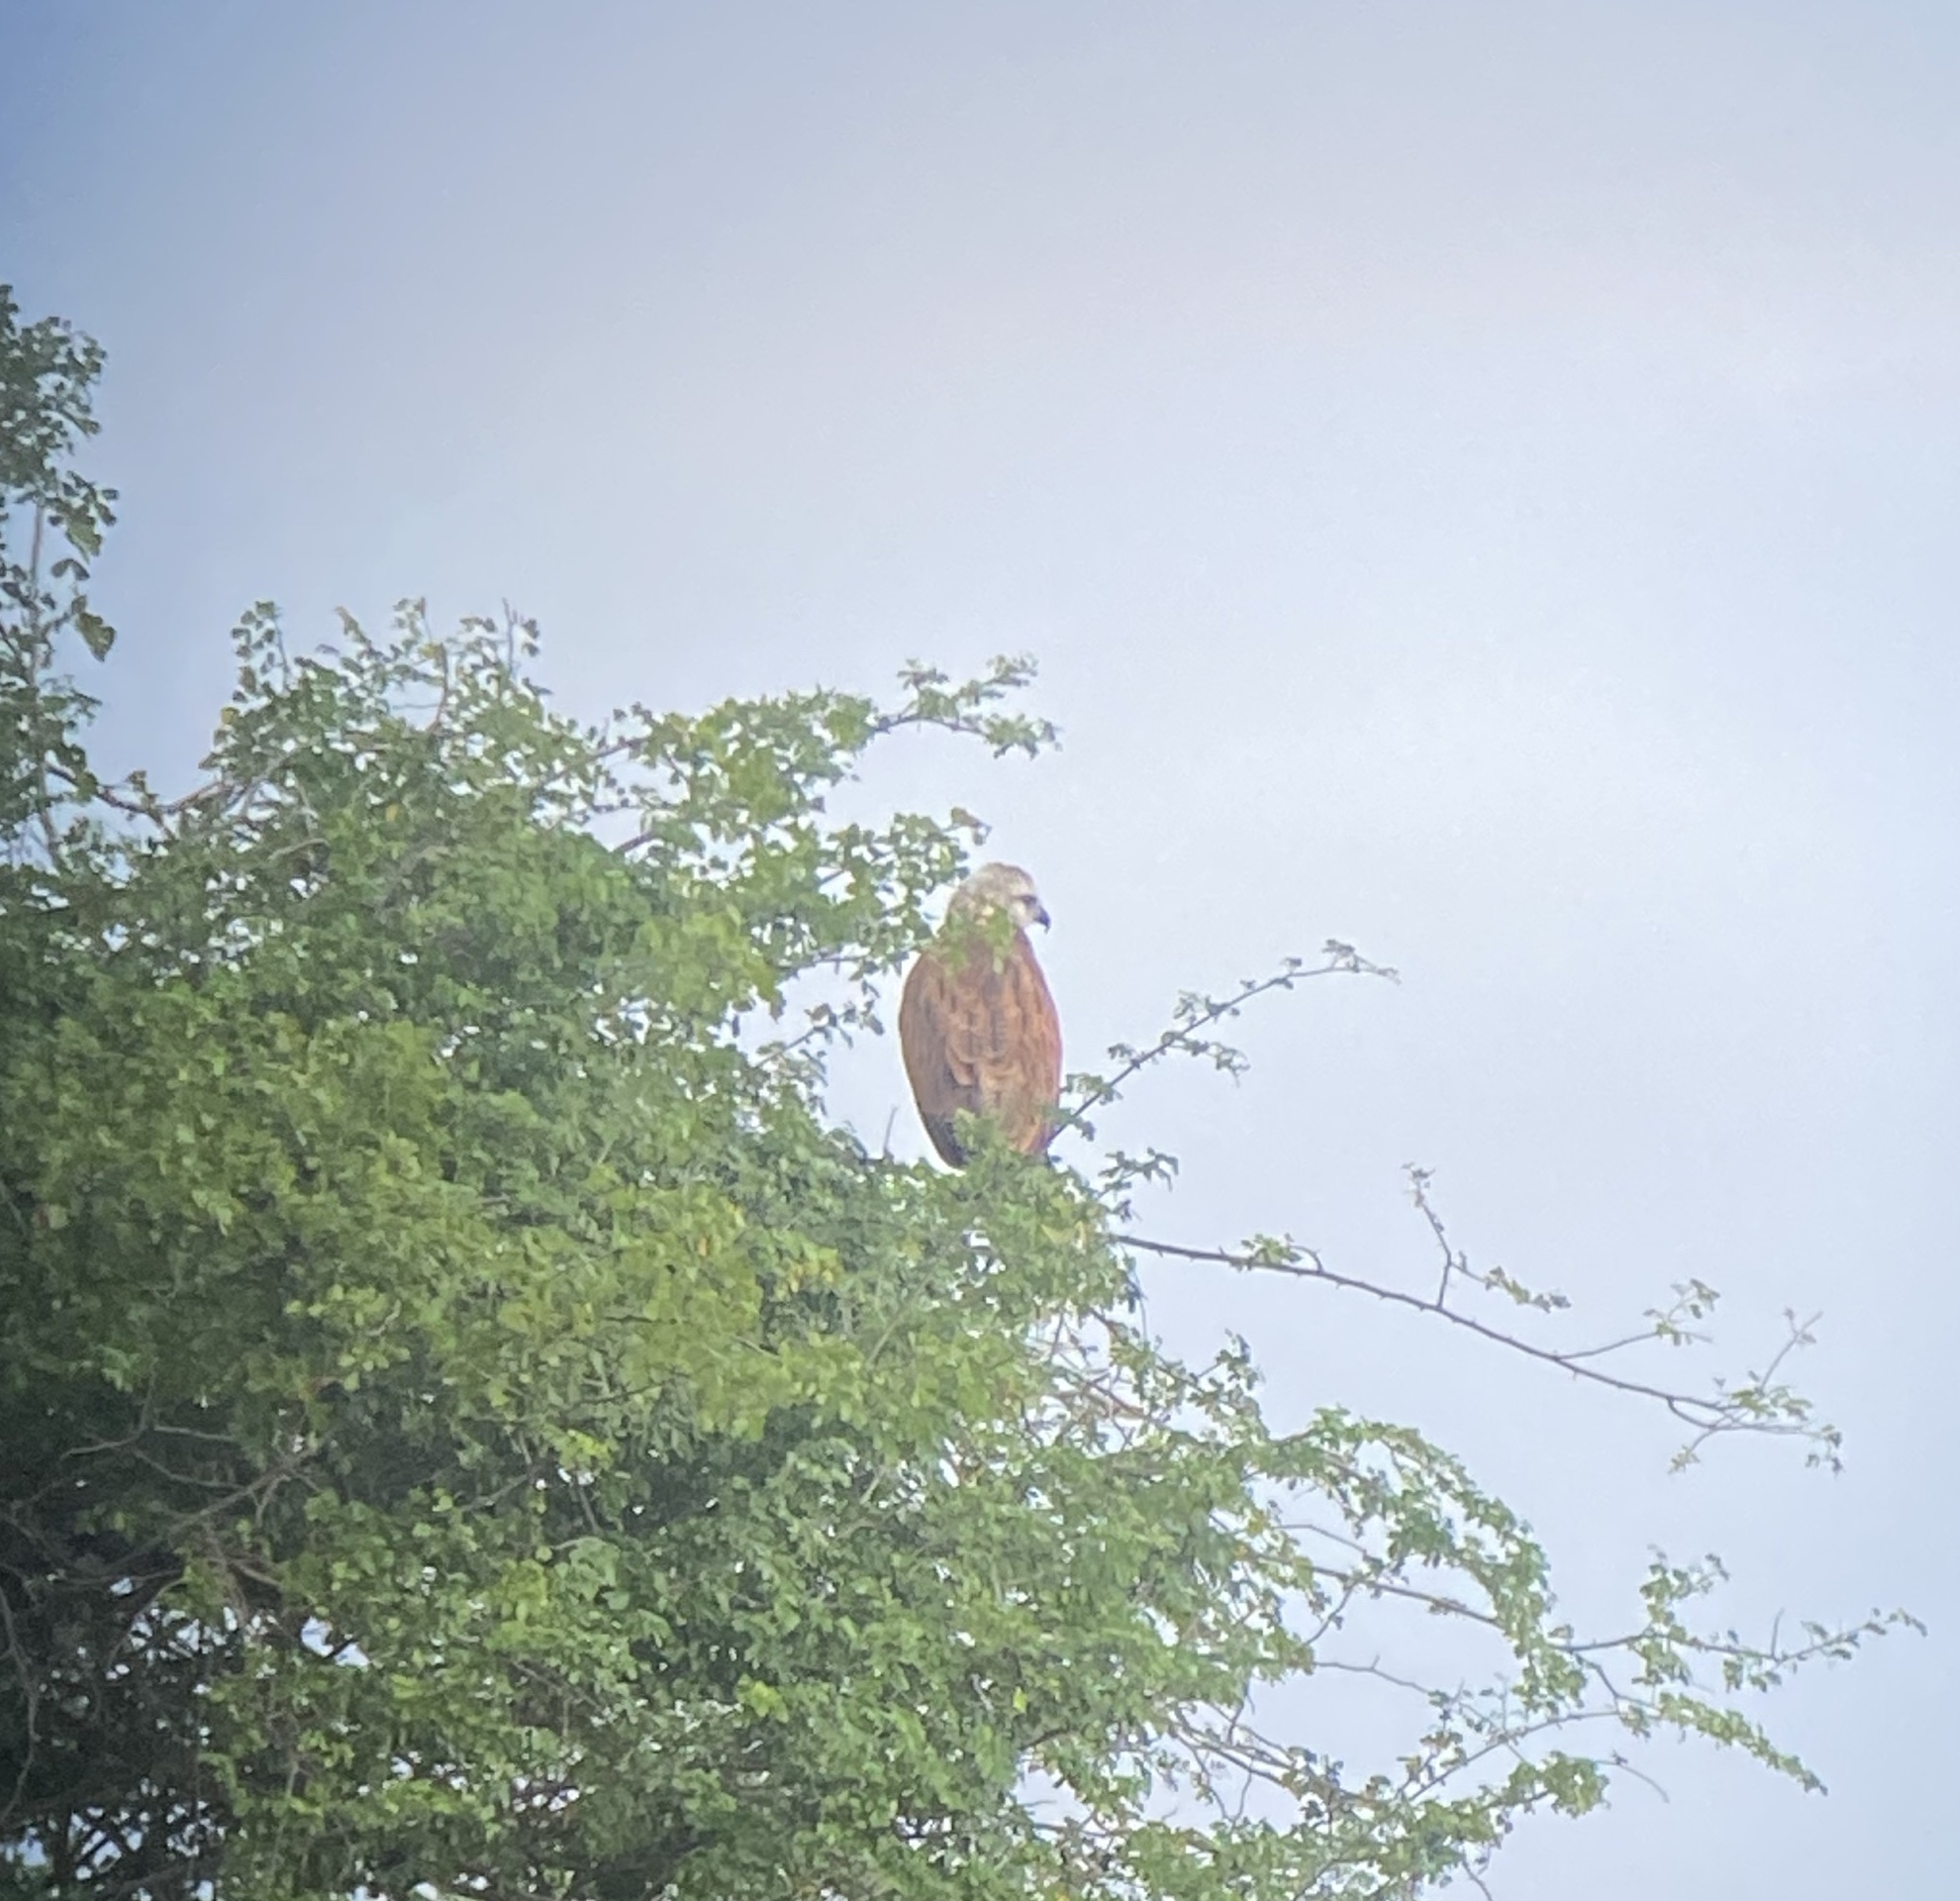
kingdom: Animalia
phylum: Chordata
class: Aves
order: Accipitriformes
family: Accipitridae
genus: Busarellus
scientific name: Busarellus nigricollis
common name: Black-collared hawk
